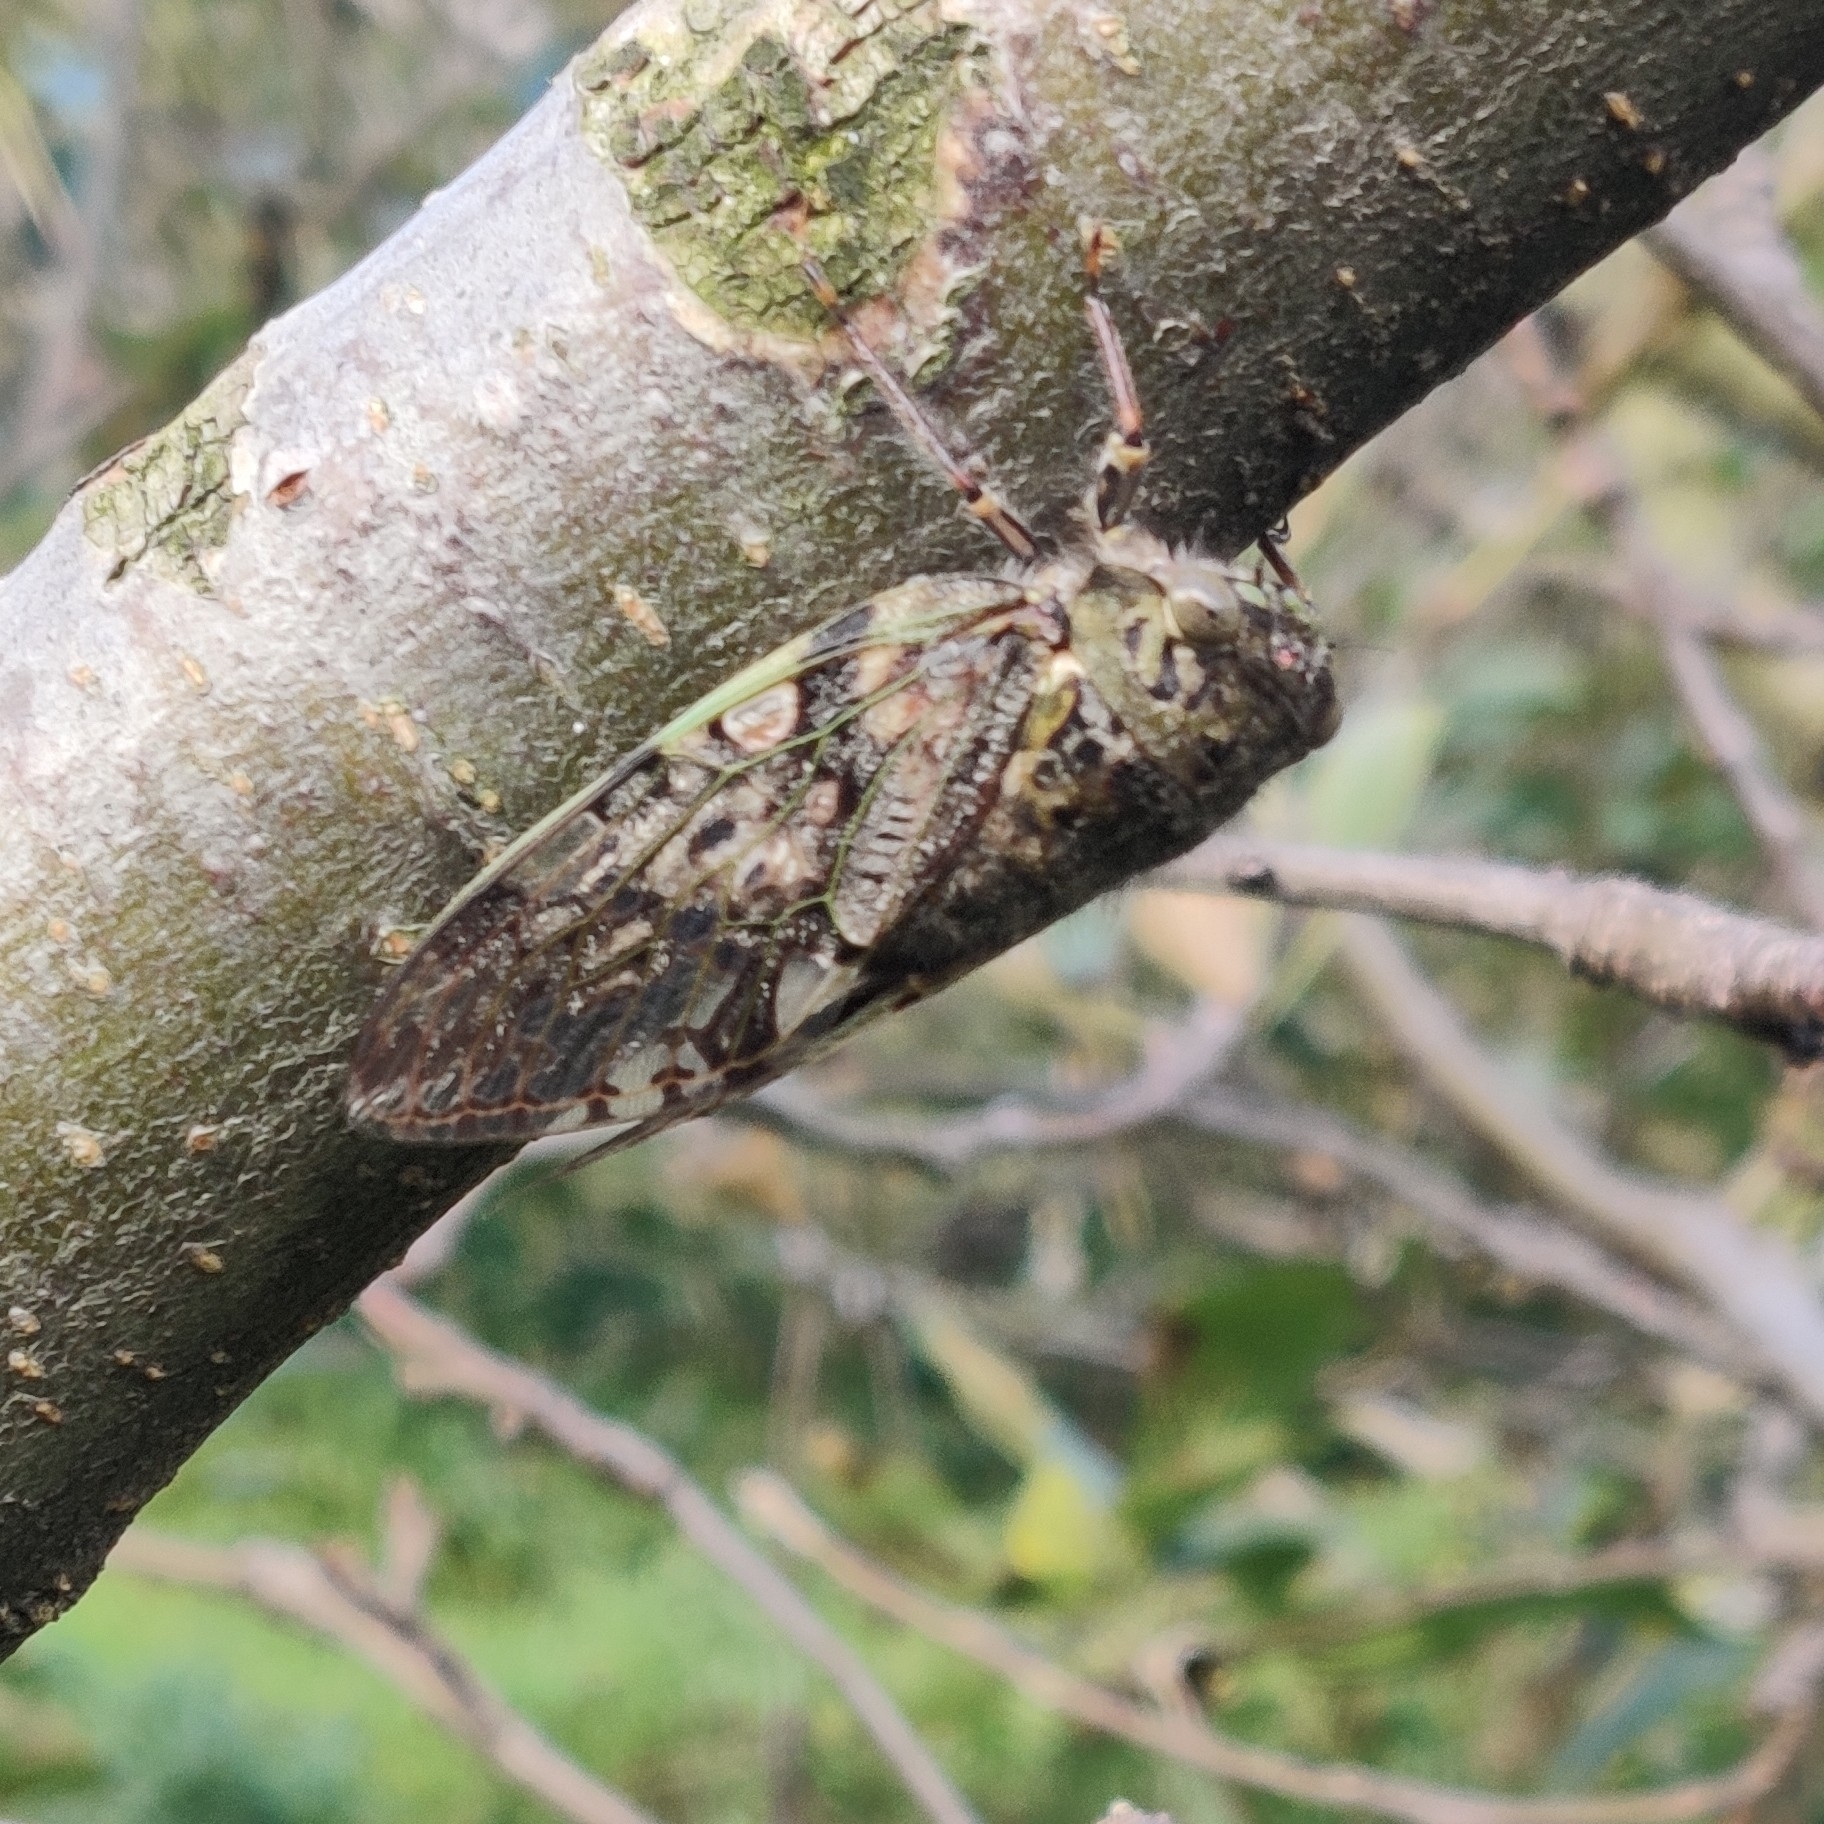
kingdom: Animalia
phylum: Arthropoda
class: Insecta
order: Hemiptera
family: Cicadidae
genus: Eopycna
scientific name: Eopycna repanda
